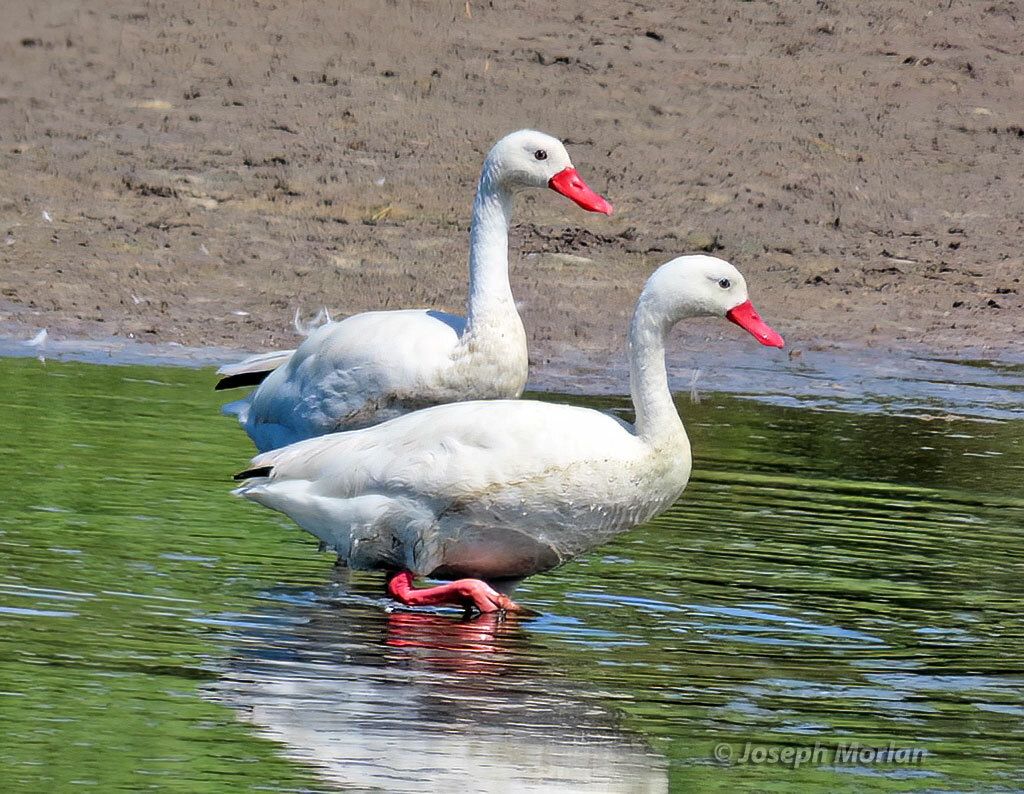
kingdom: Animalia
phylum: Chordata
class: Aves
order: Anseriformes
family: Anatidae
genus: Coscoroba
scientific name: Coscoroba coscoroba
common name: Coscoroba swan
